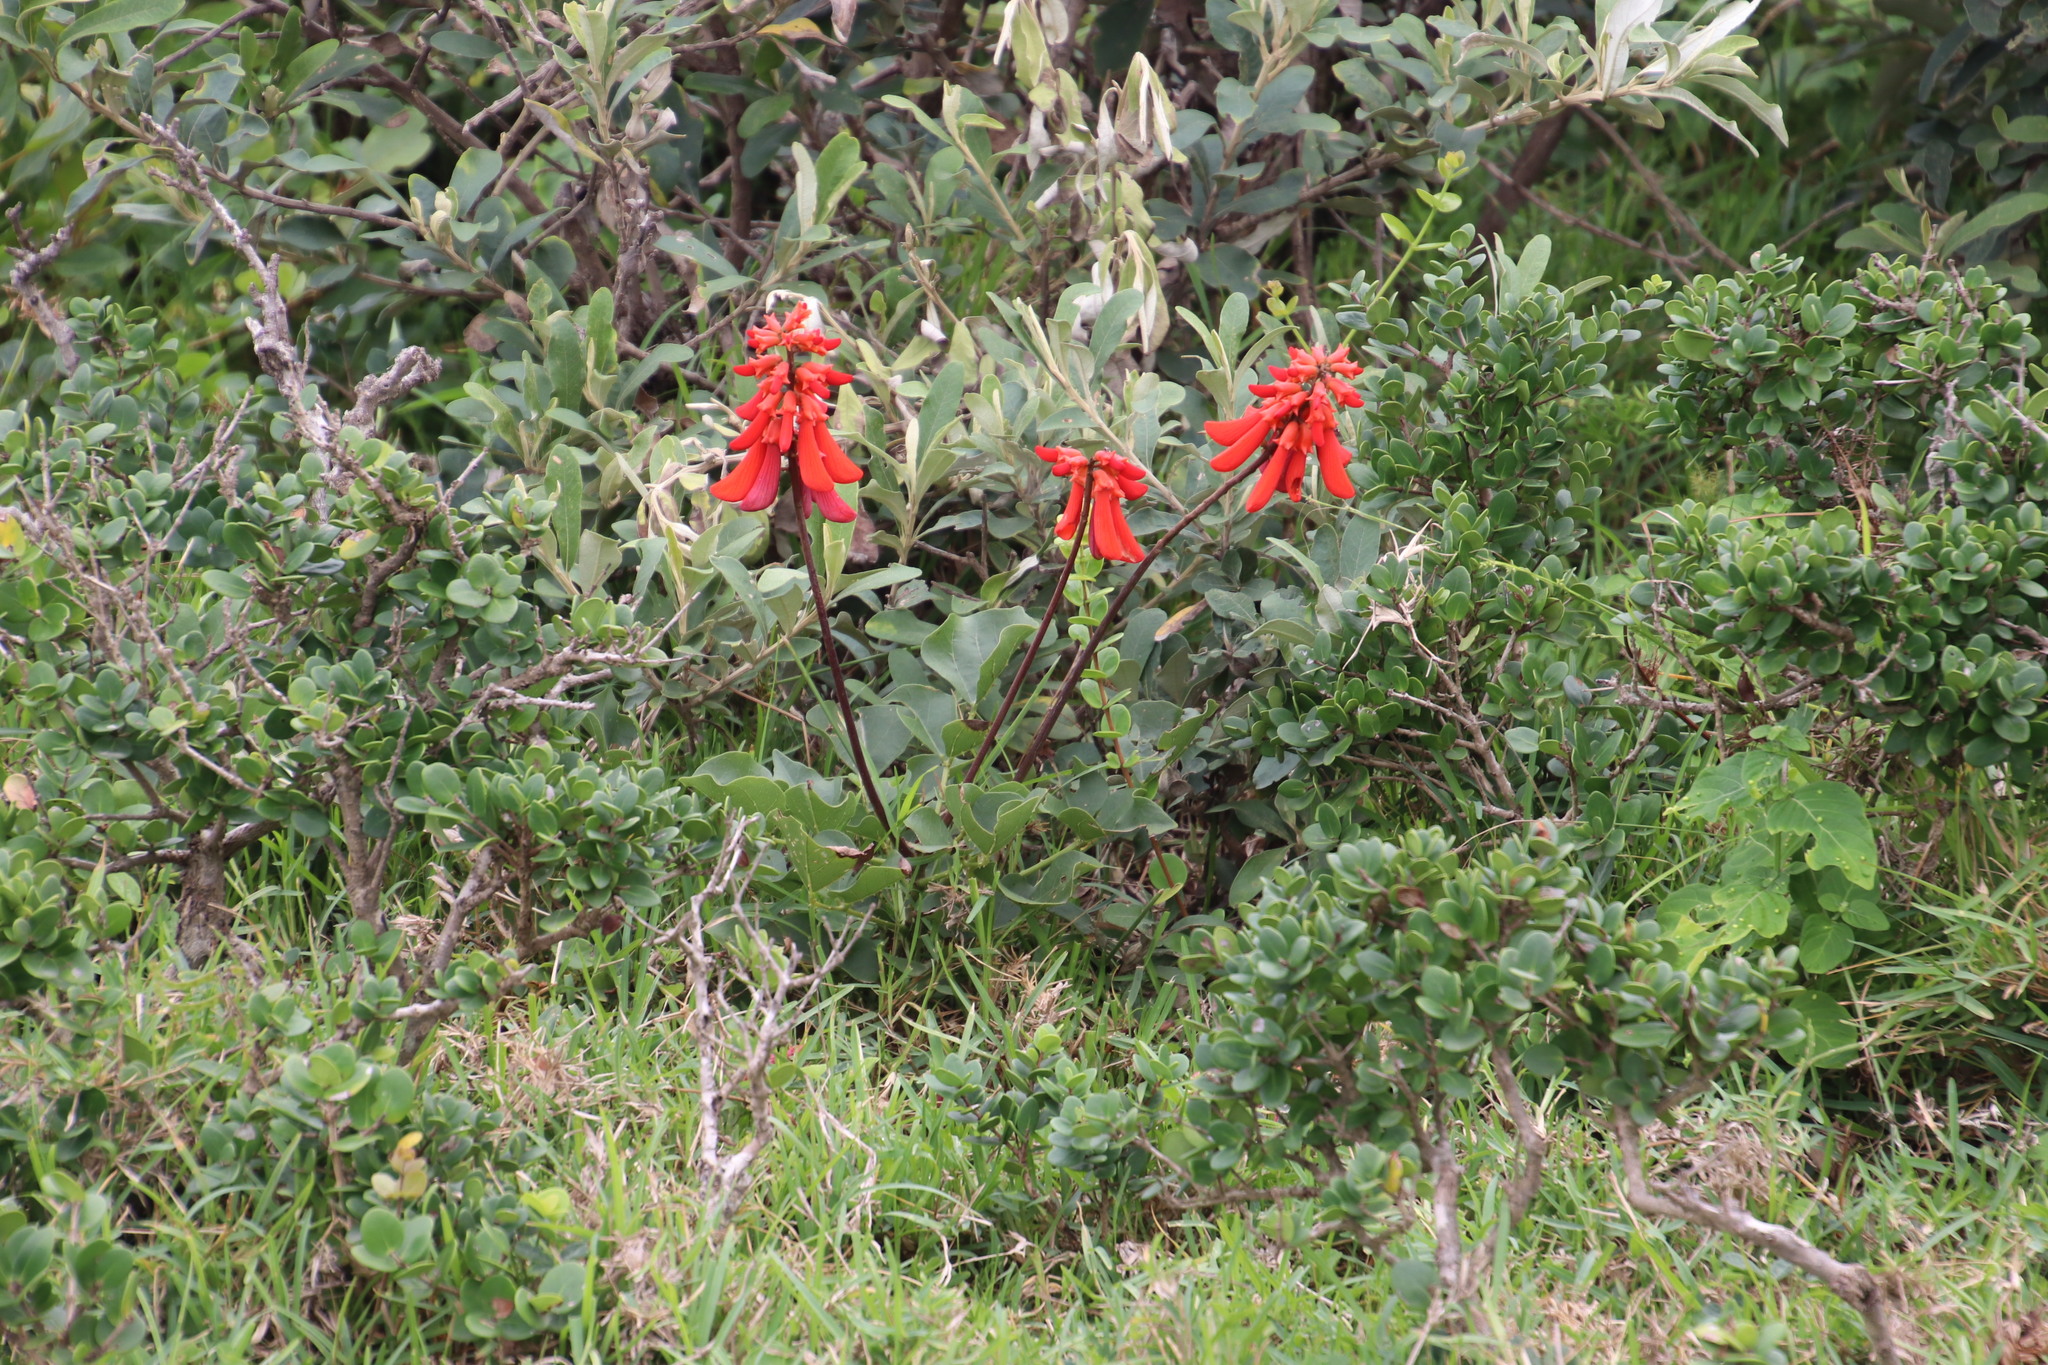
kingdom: Plantae
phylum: Tracheophyta
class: Magnoliopsida
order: Fabales
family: Fabaceae
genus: Erythrina
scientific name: Erythrina humeana
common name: Dwarf coral tree
